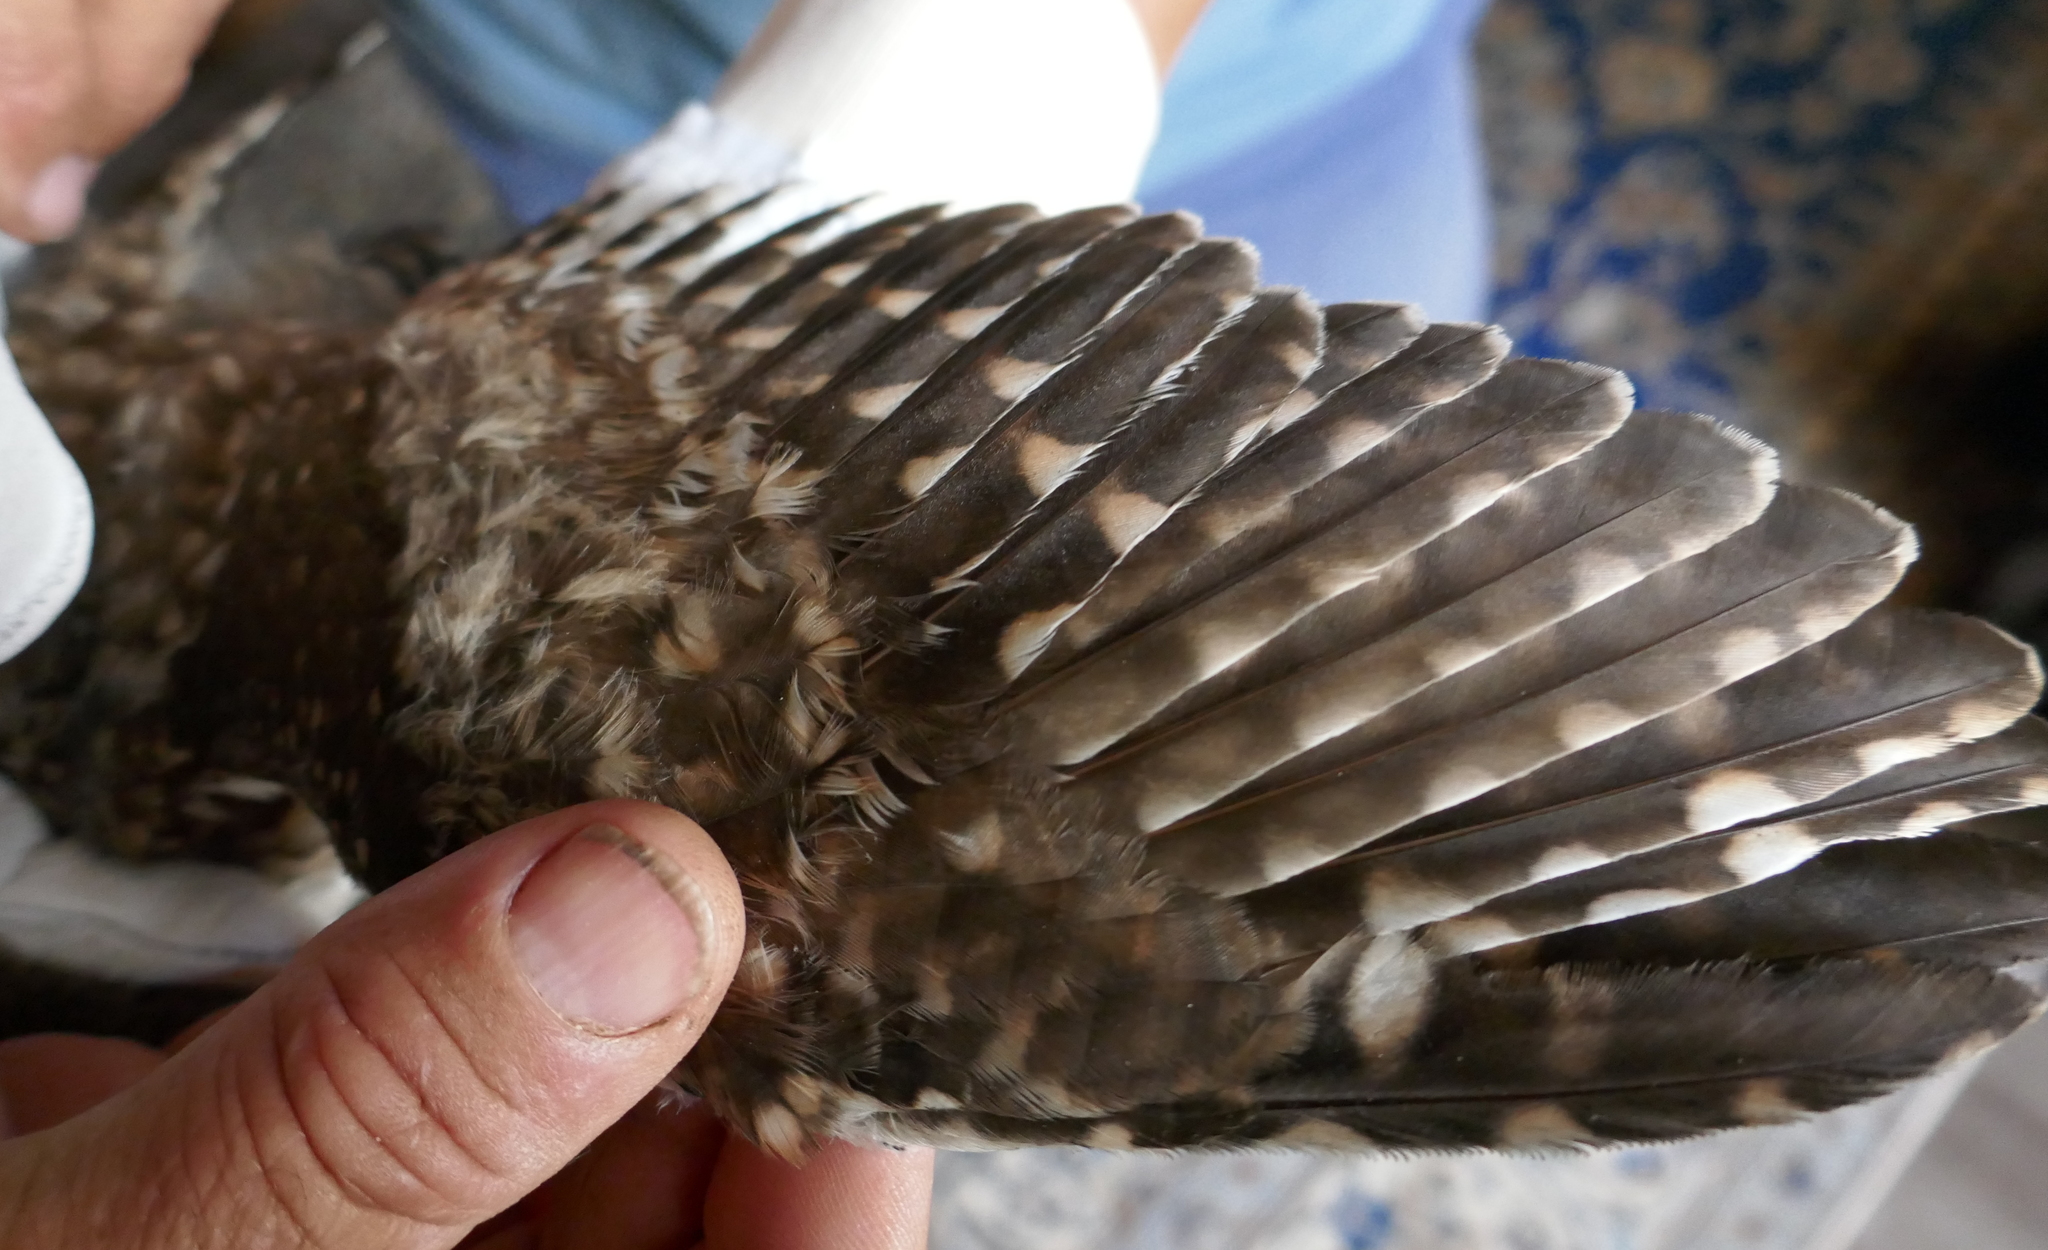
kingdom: Animalia
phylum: Chordata
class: Aves
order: Strigiformes
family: Strigidae
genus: Athene
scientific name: Athene noctua
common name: Little owl
